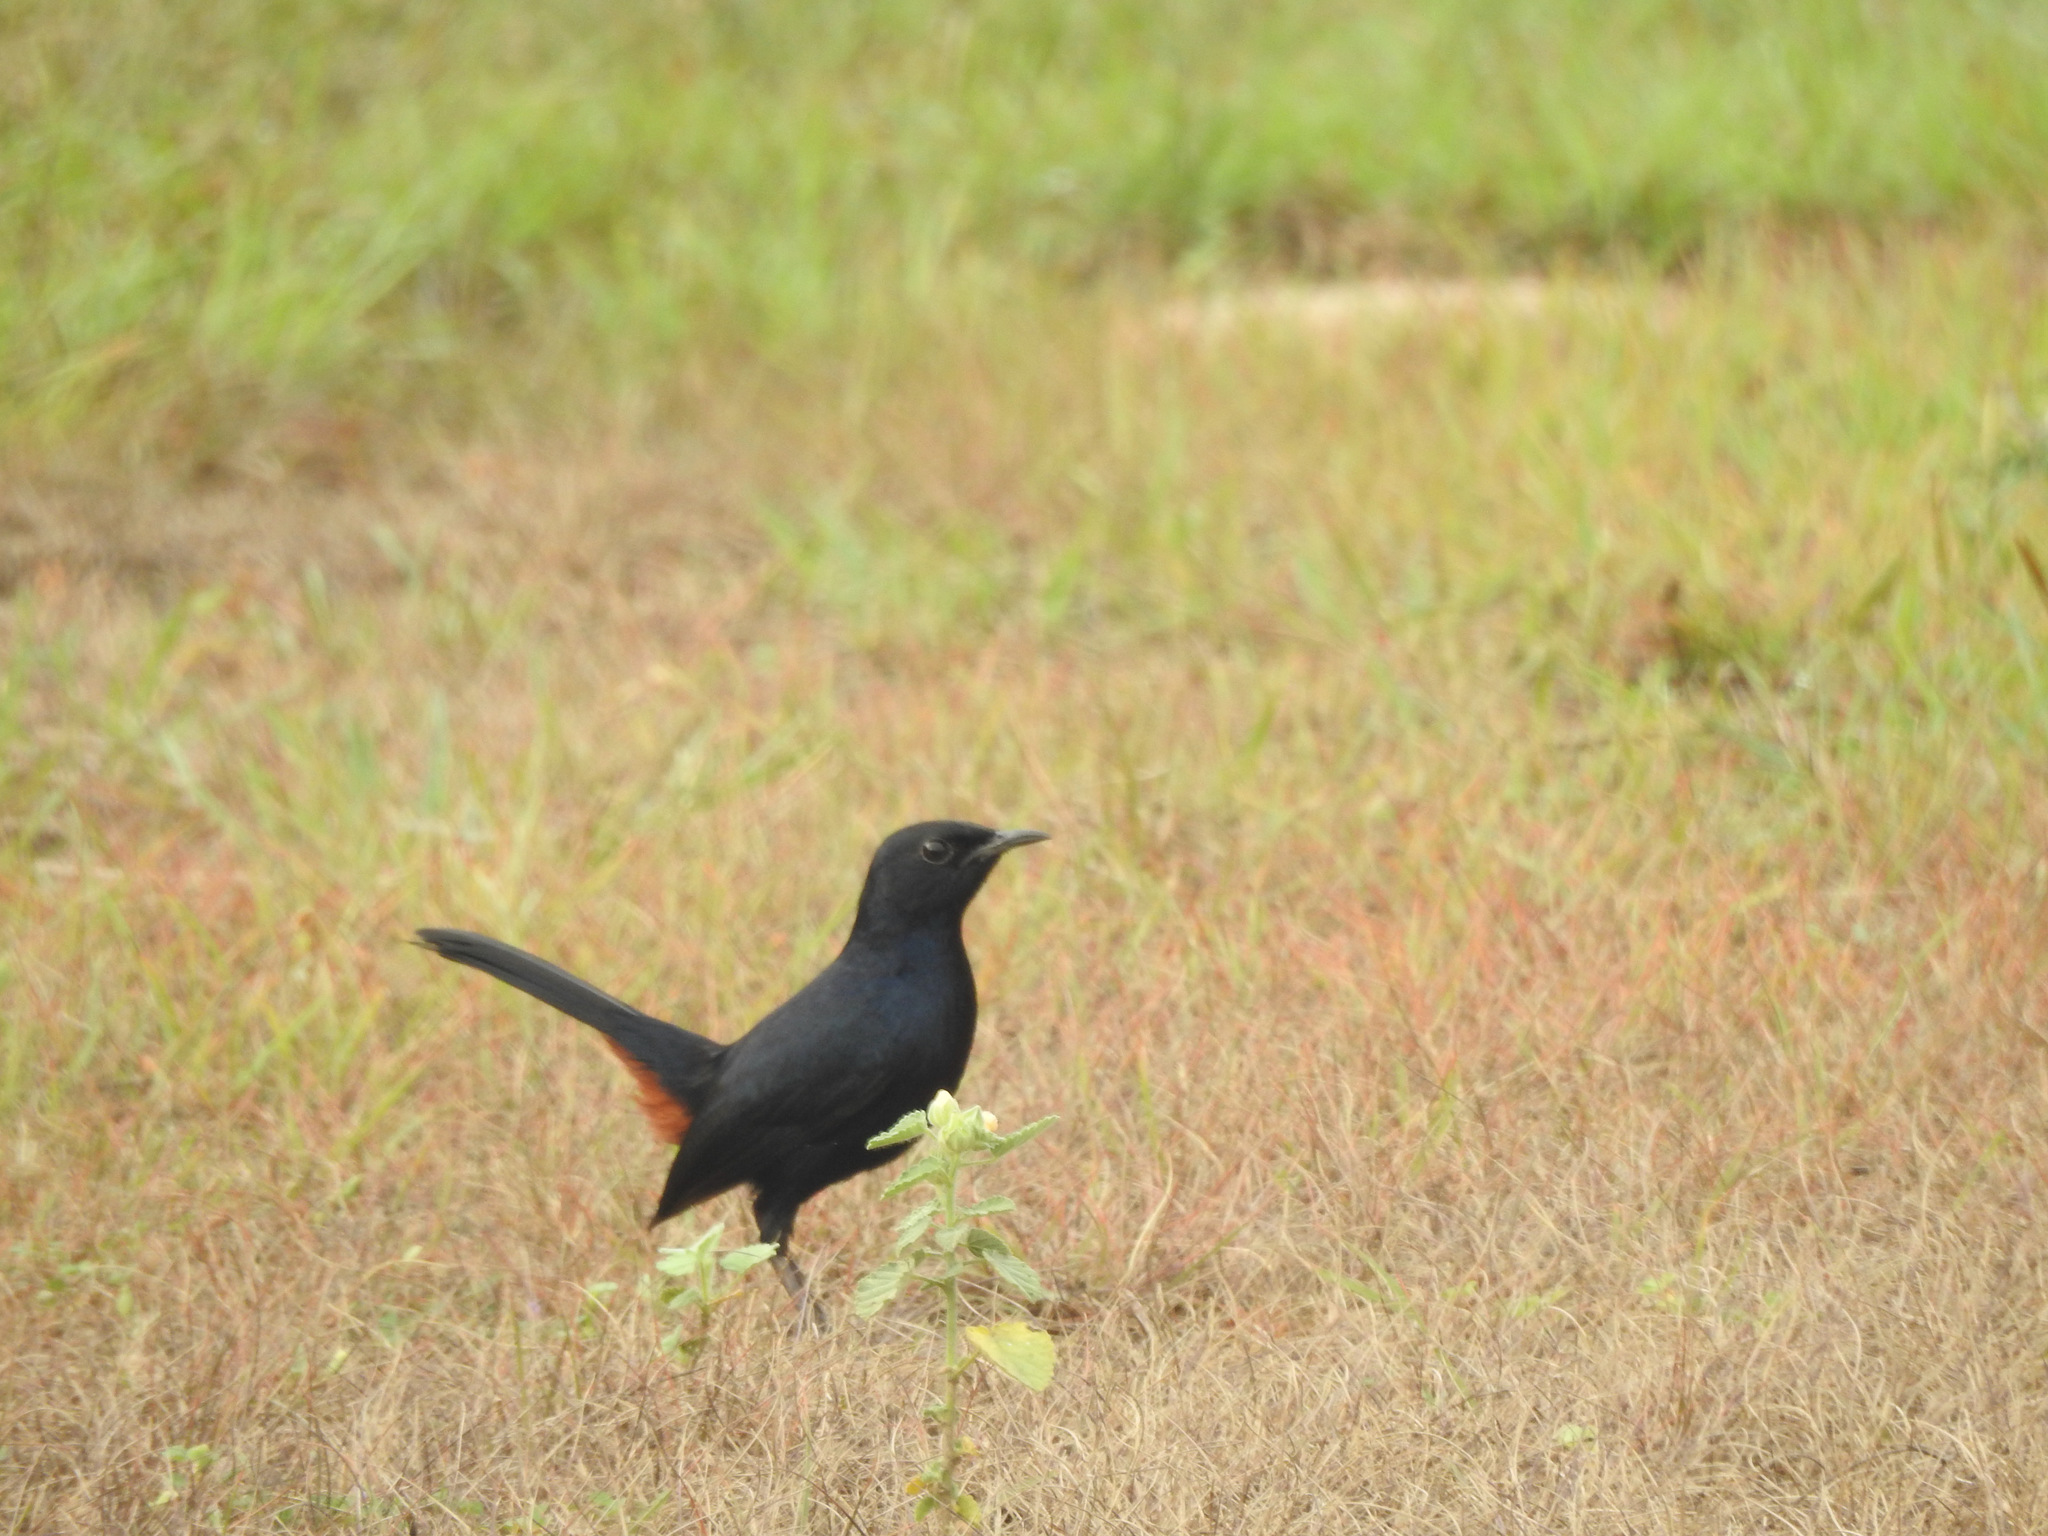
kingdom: Animalia
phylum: Chordata
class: Aves
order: Passeriformes
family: Muscicapidae
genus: Saxicoloides
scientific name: Saxicoloides fulicatus
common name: Indian robin
